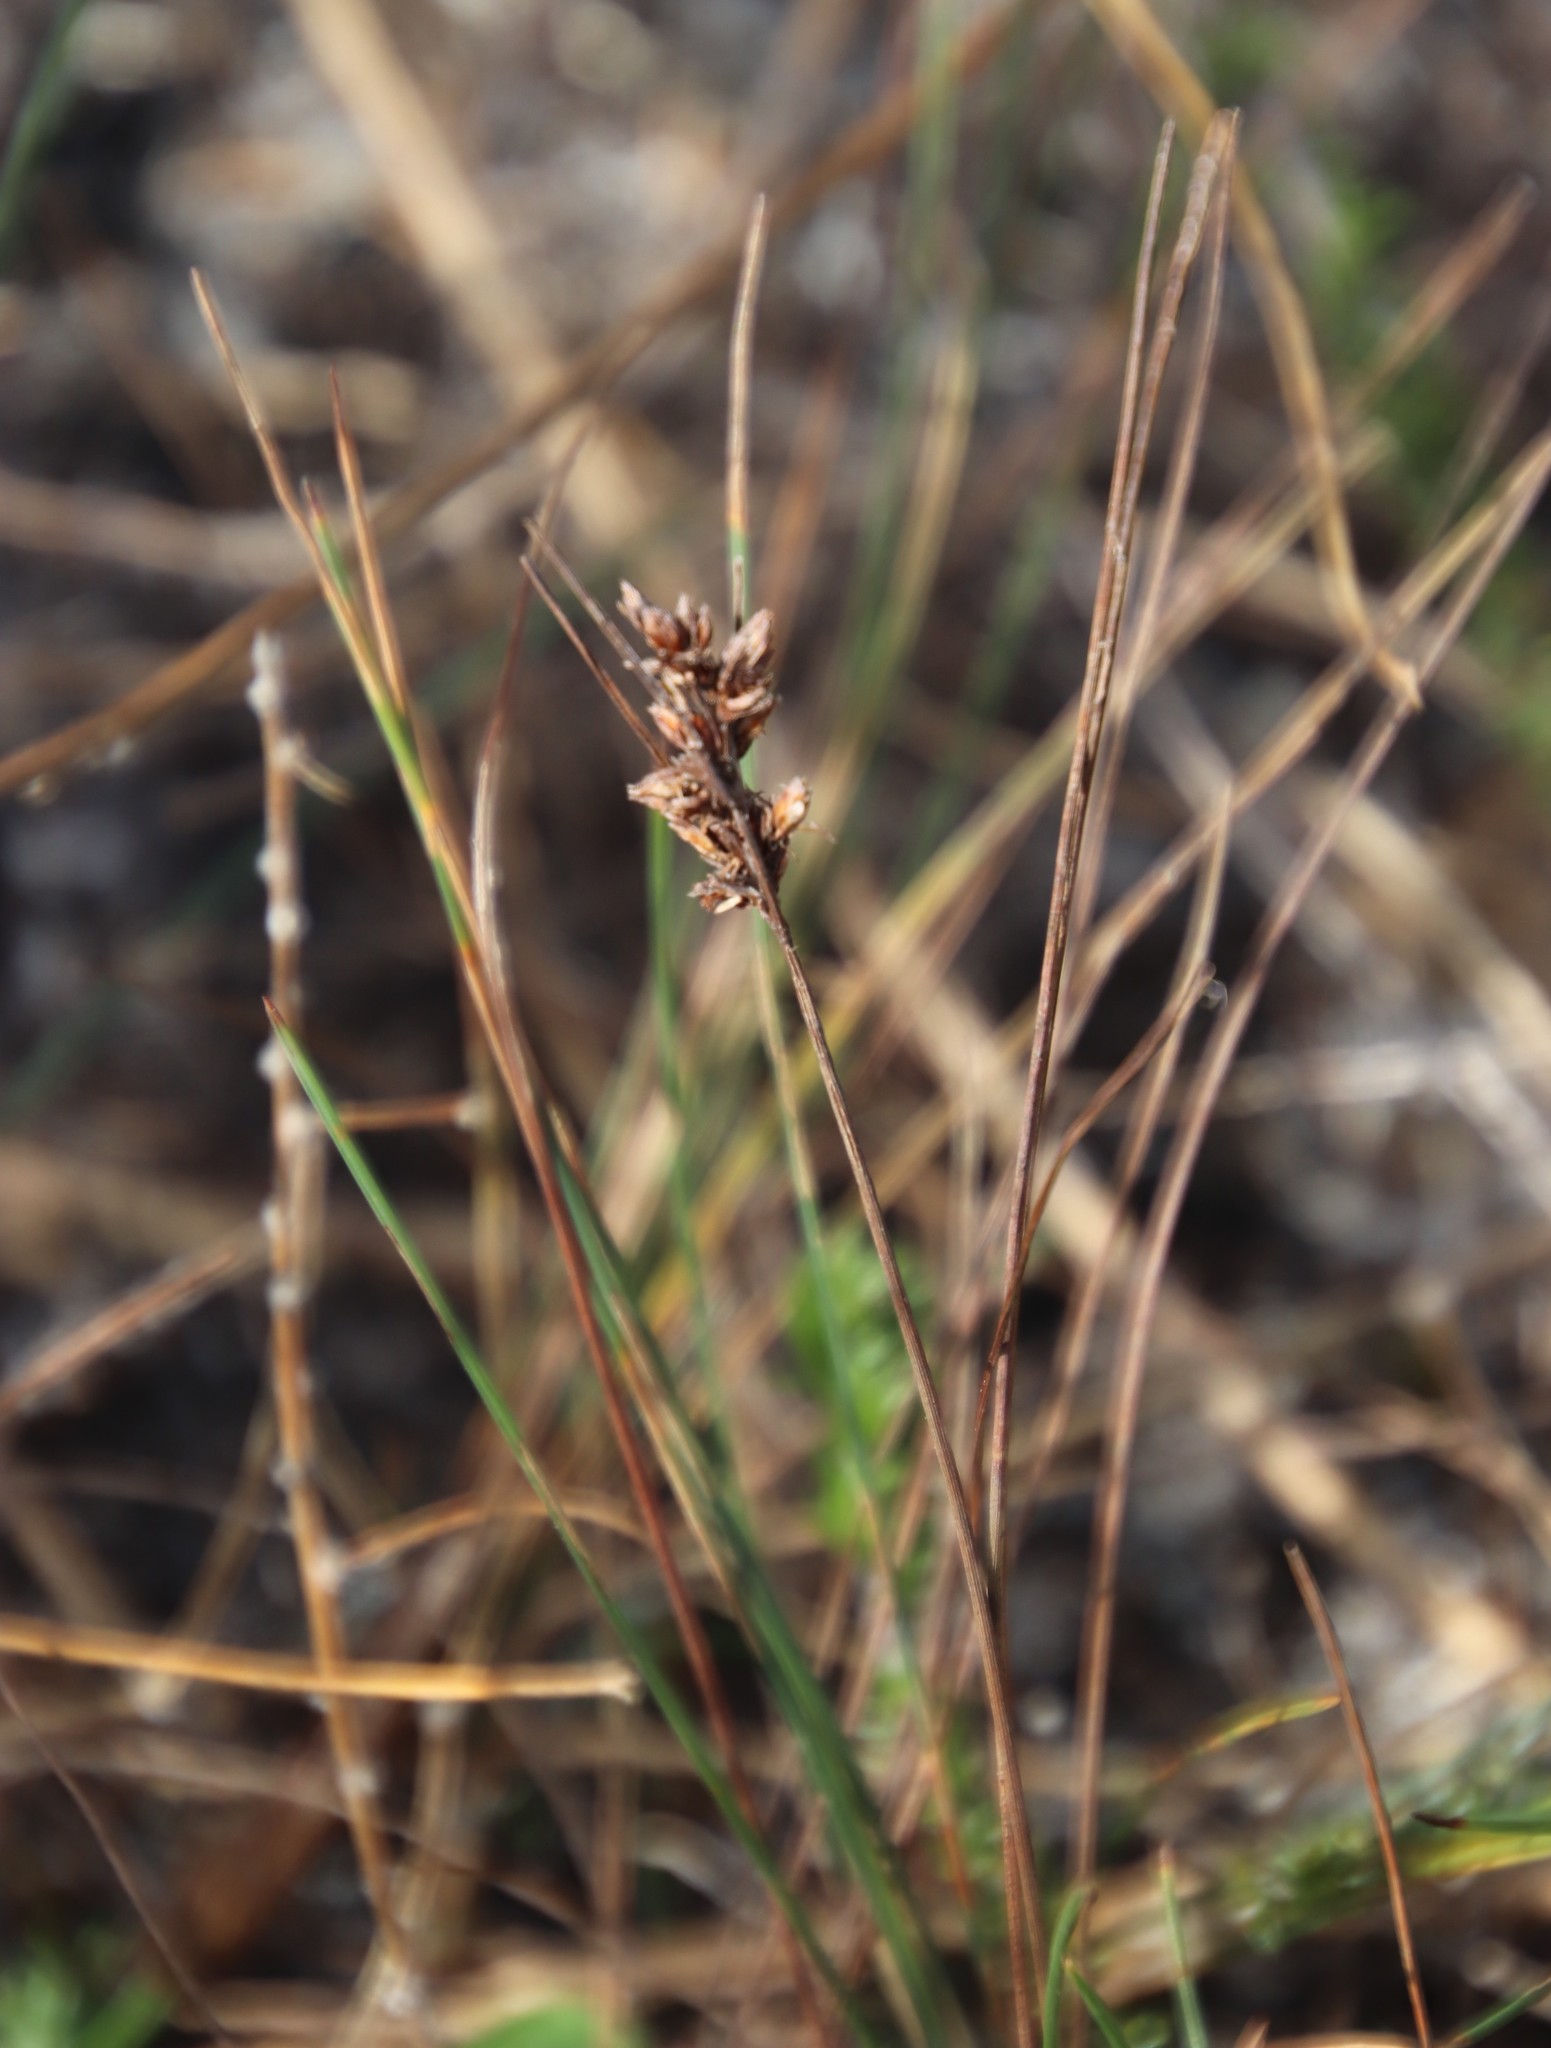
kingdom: Plantae
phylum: Tracheophyta
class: Liliopsida
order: Poales
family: Cyperaceae
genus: Ficinia
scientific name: Ficinia bulbosa
